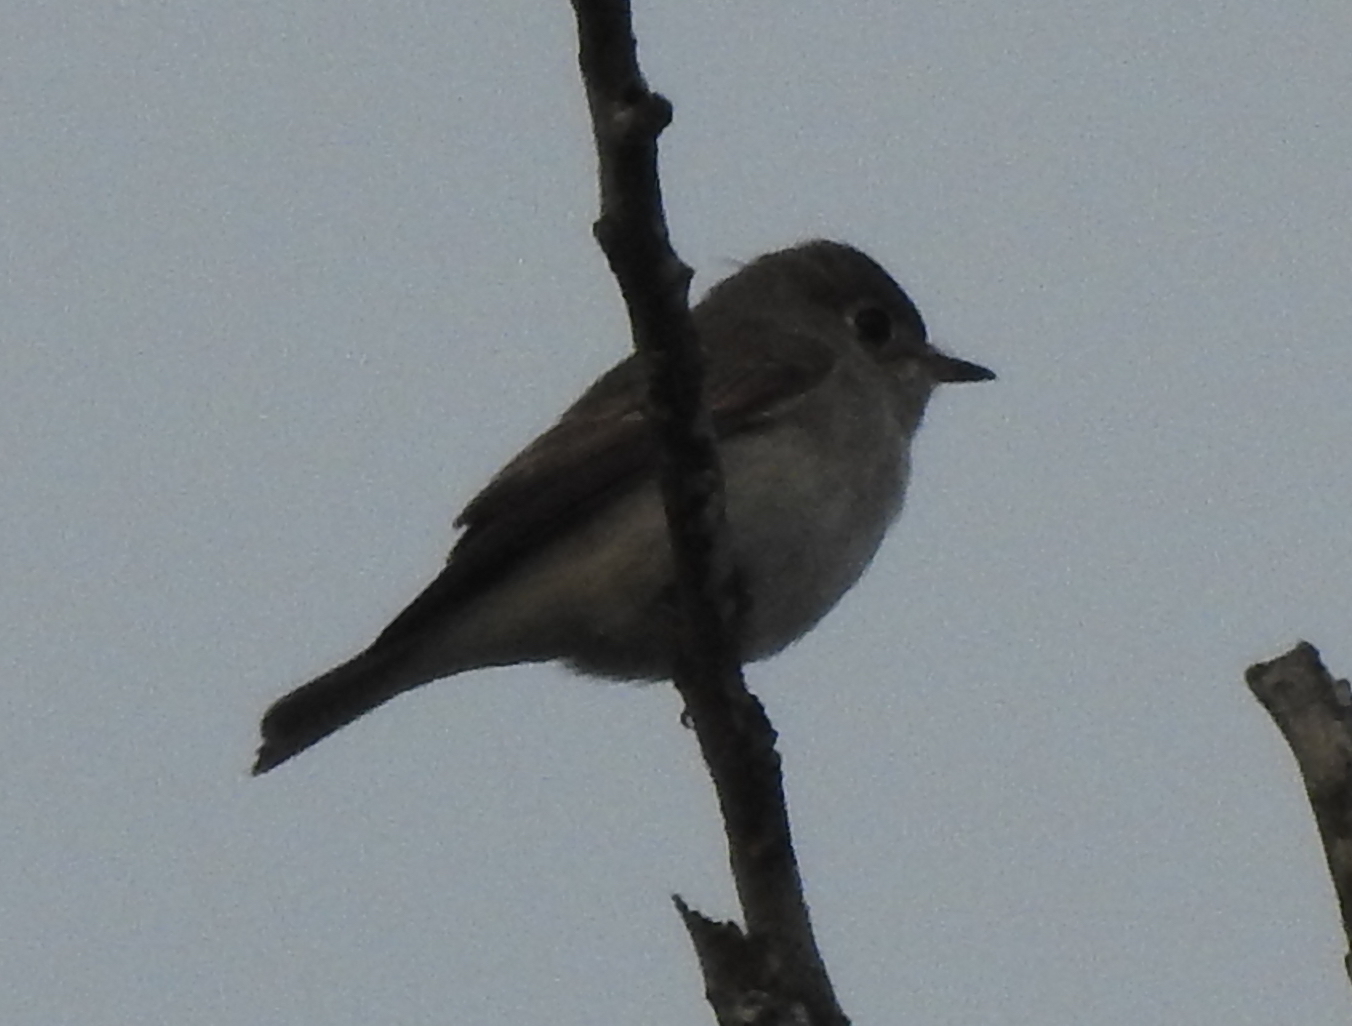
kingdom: Animalia
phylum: Chordata
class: Aves
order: Passeriformes
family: Muscicapidae
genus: Muscicapa
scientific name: Muscicapa latirostris
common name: Asian brown flycatcher
